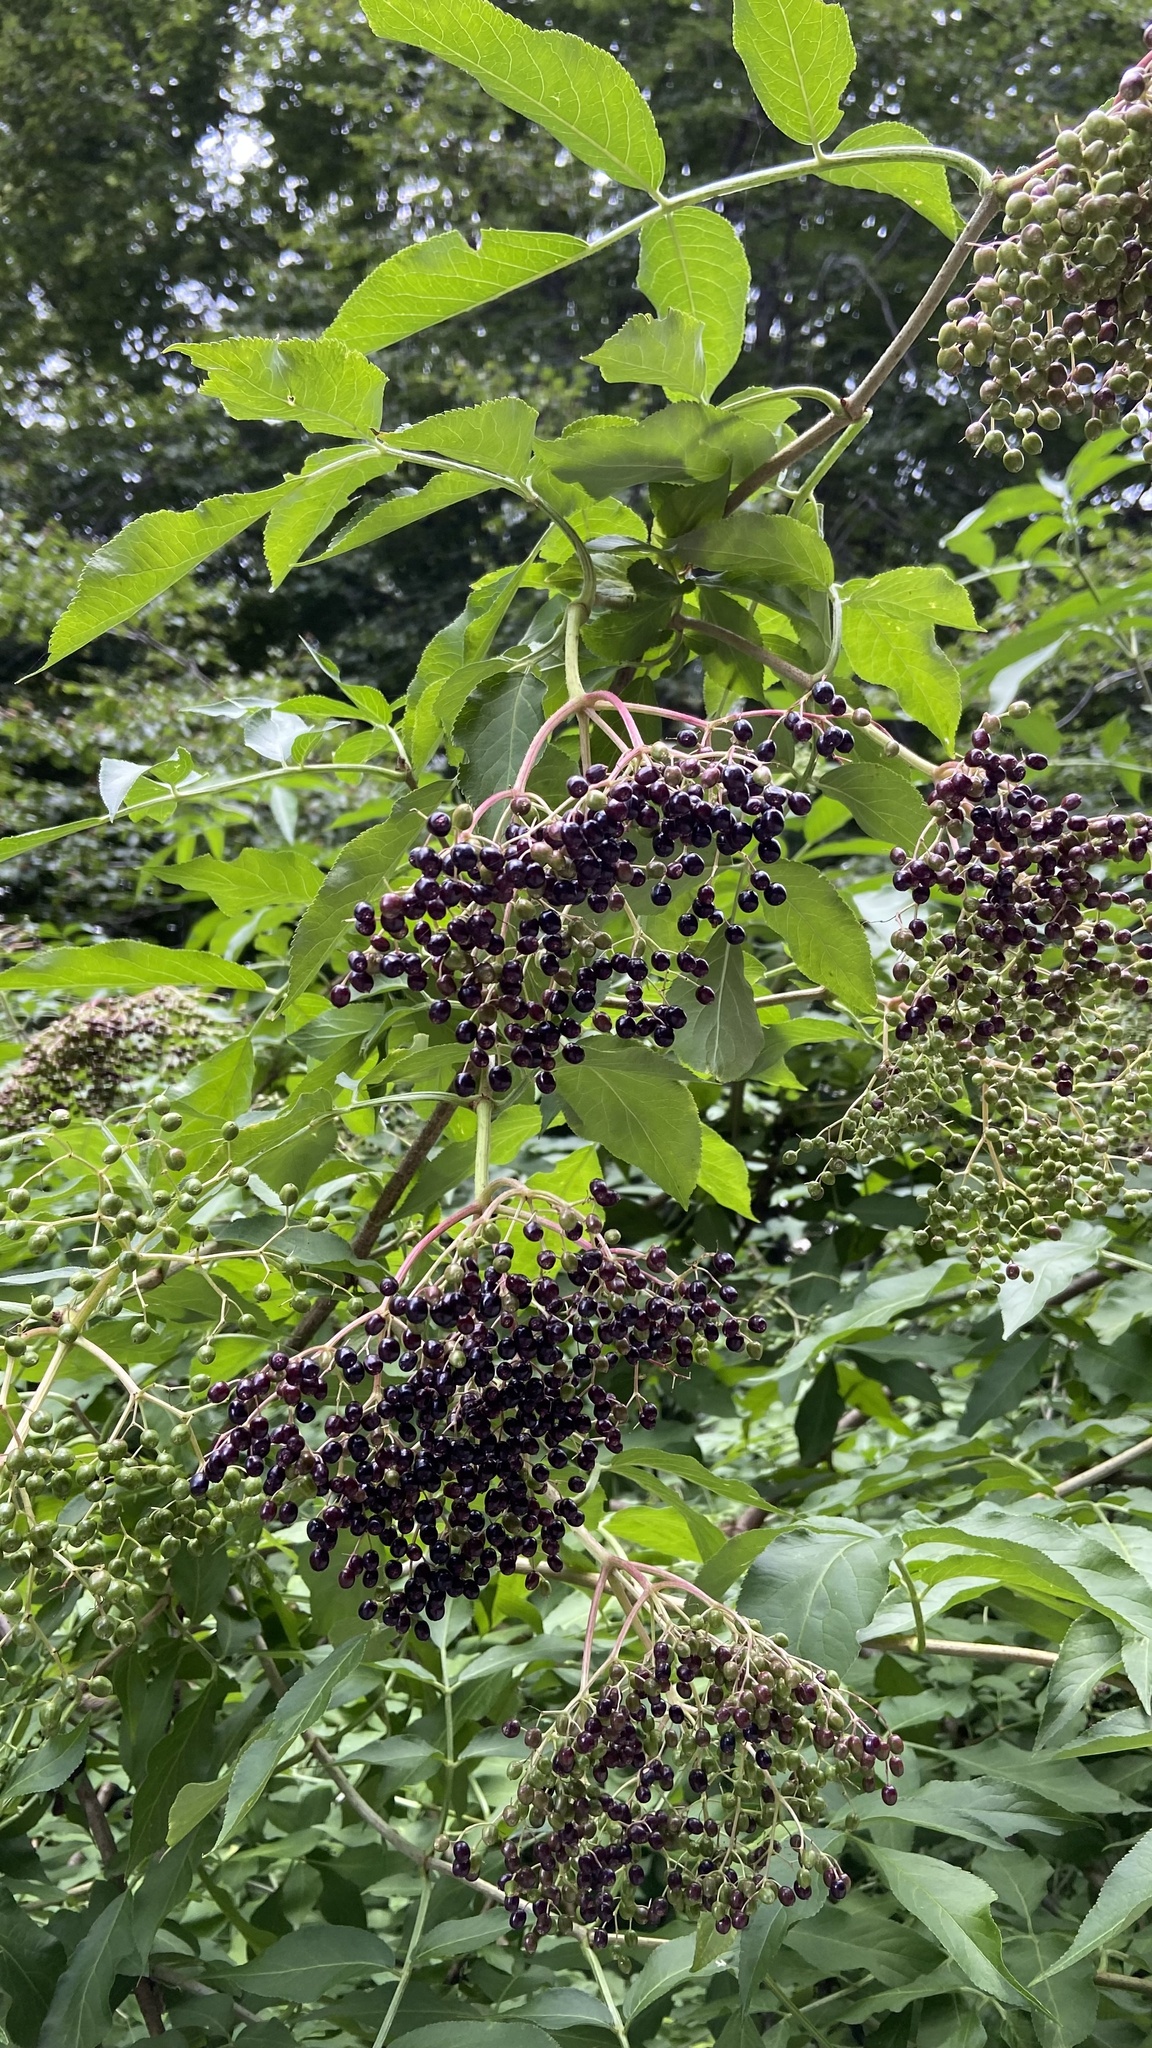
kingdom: Plantae
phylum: Tracheophyta
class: Magnoliopsida
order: Dipsacales
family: Viburnaceae
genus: Sambucus
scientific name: Sambucus nigra
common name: Elder
